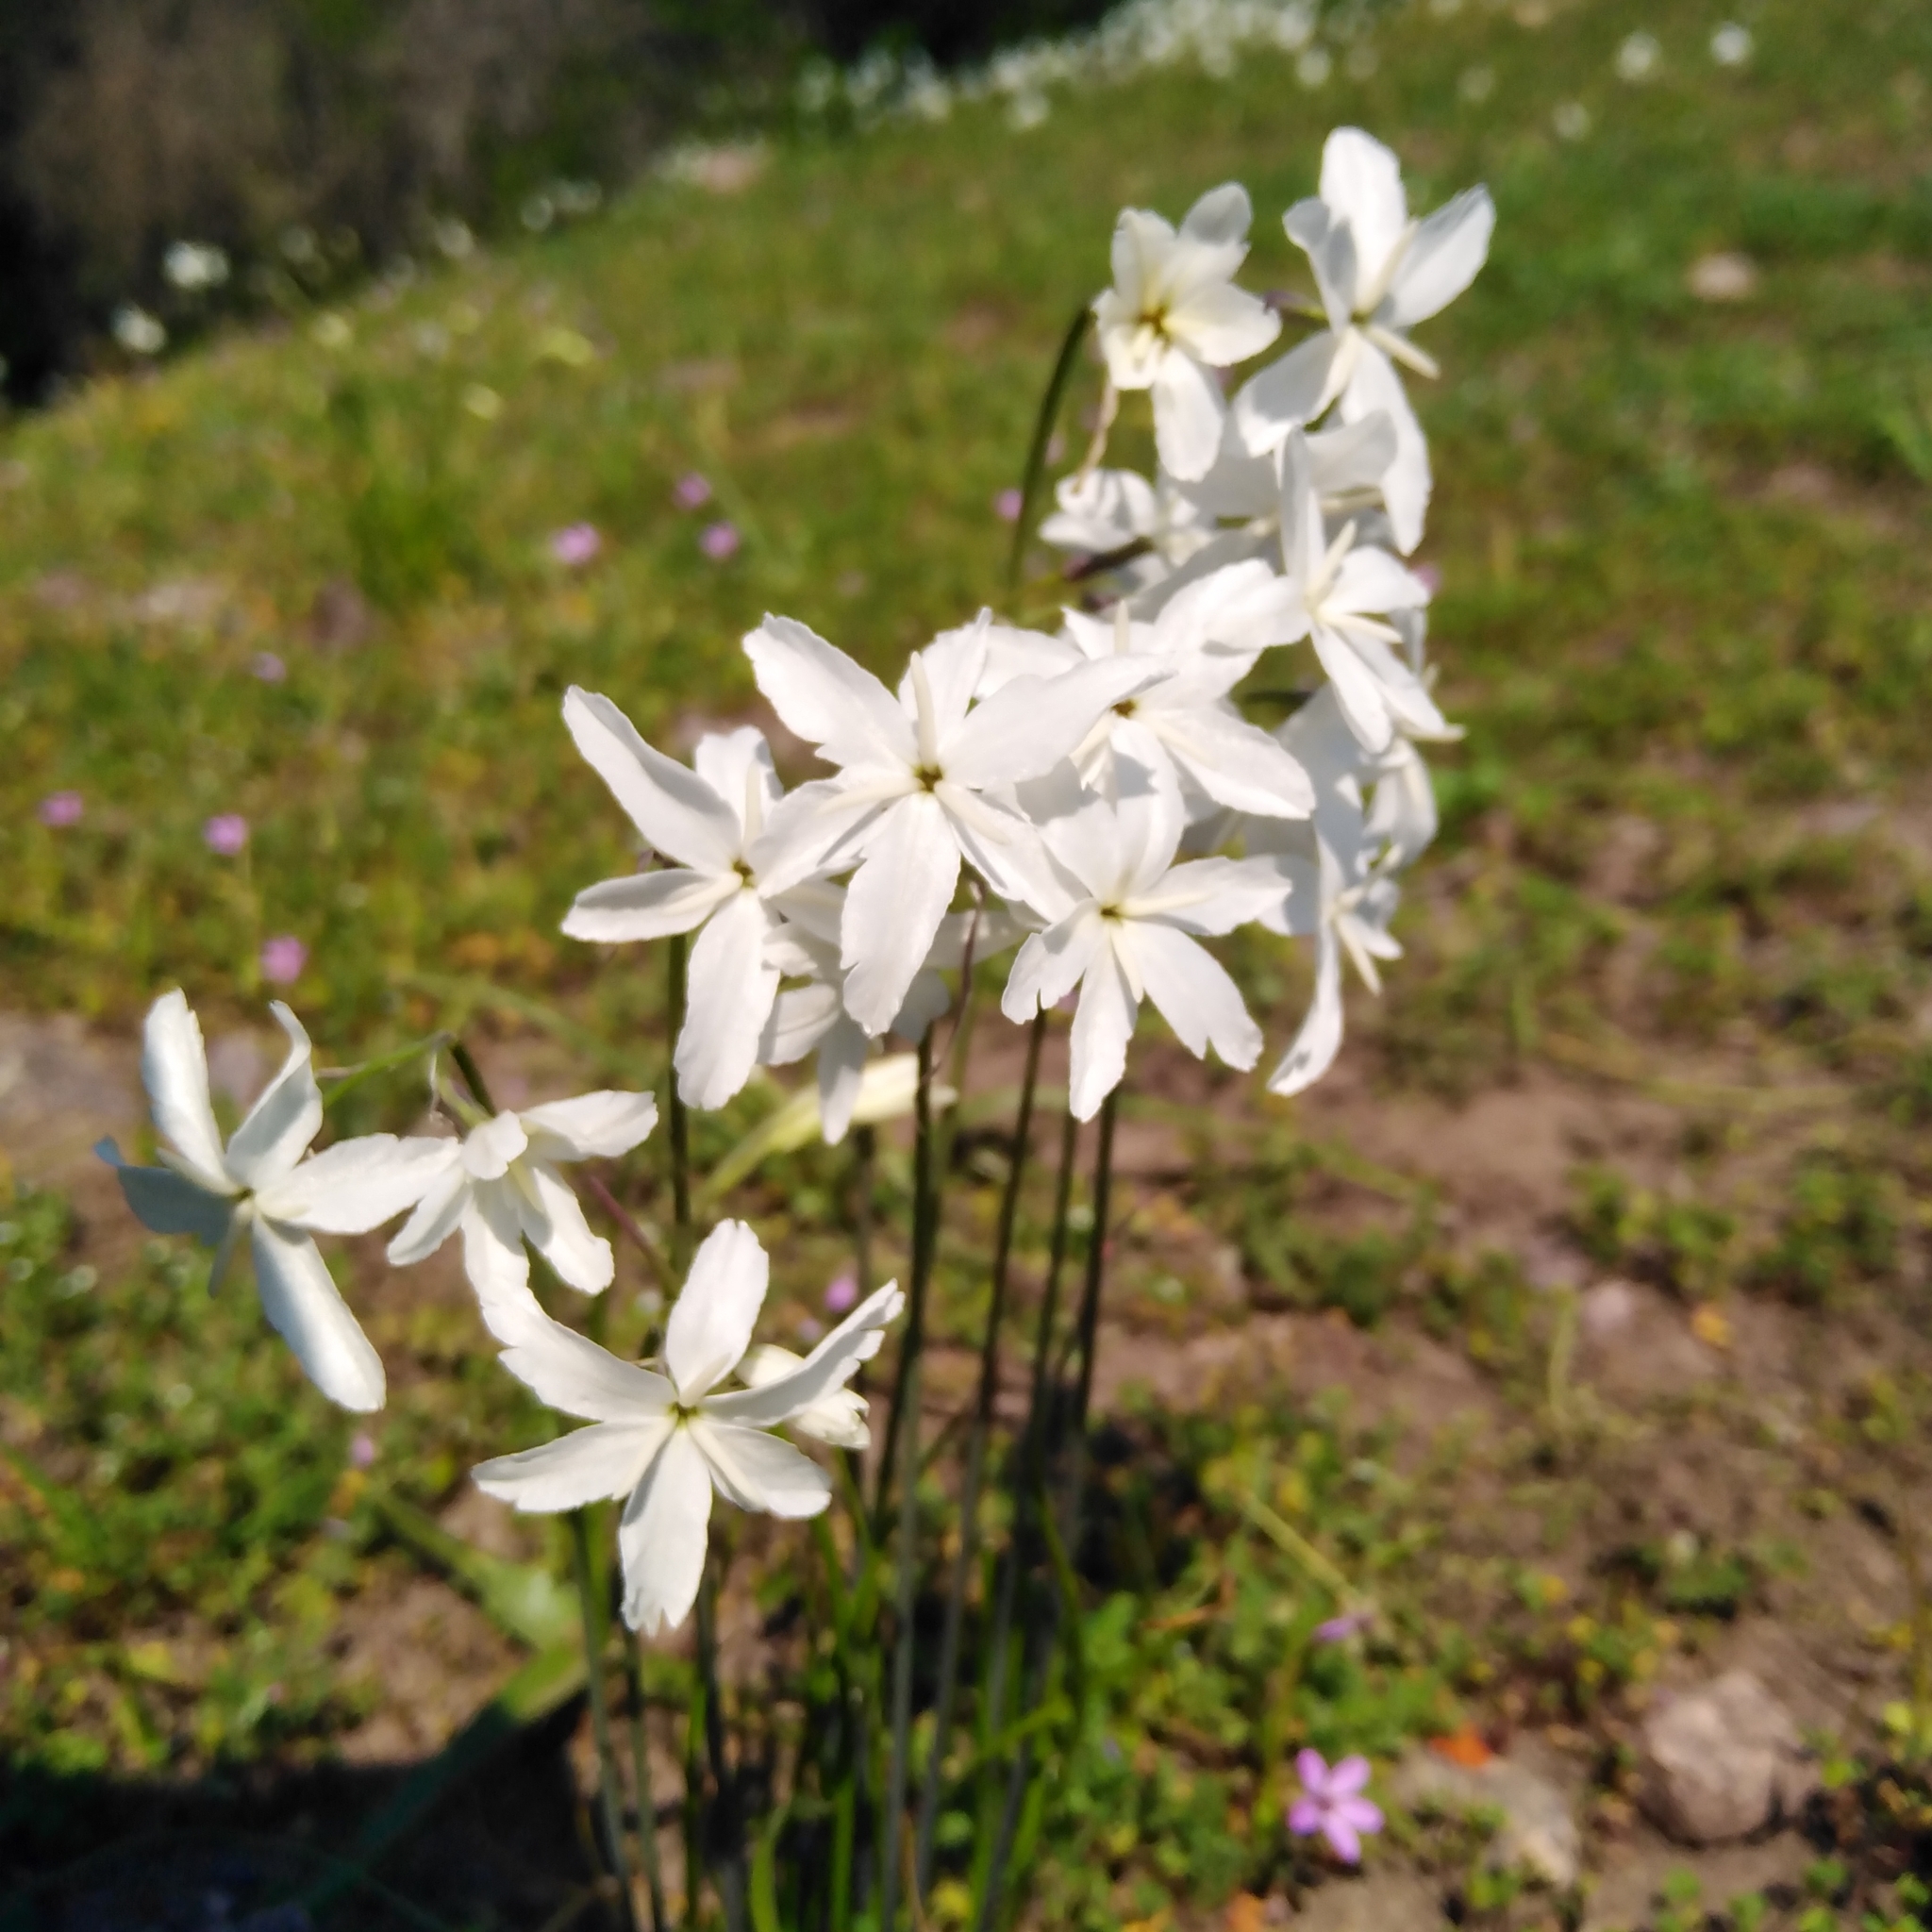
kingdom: Plantae
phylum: Tracheophyta
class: Liliopsida
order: Asparagales
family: Amaryllidaceae
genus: Leucocoryne
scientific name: Leucocoryne ixioides
